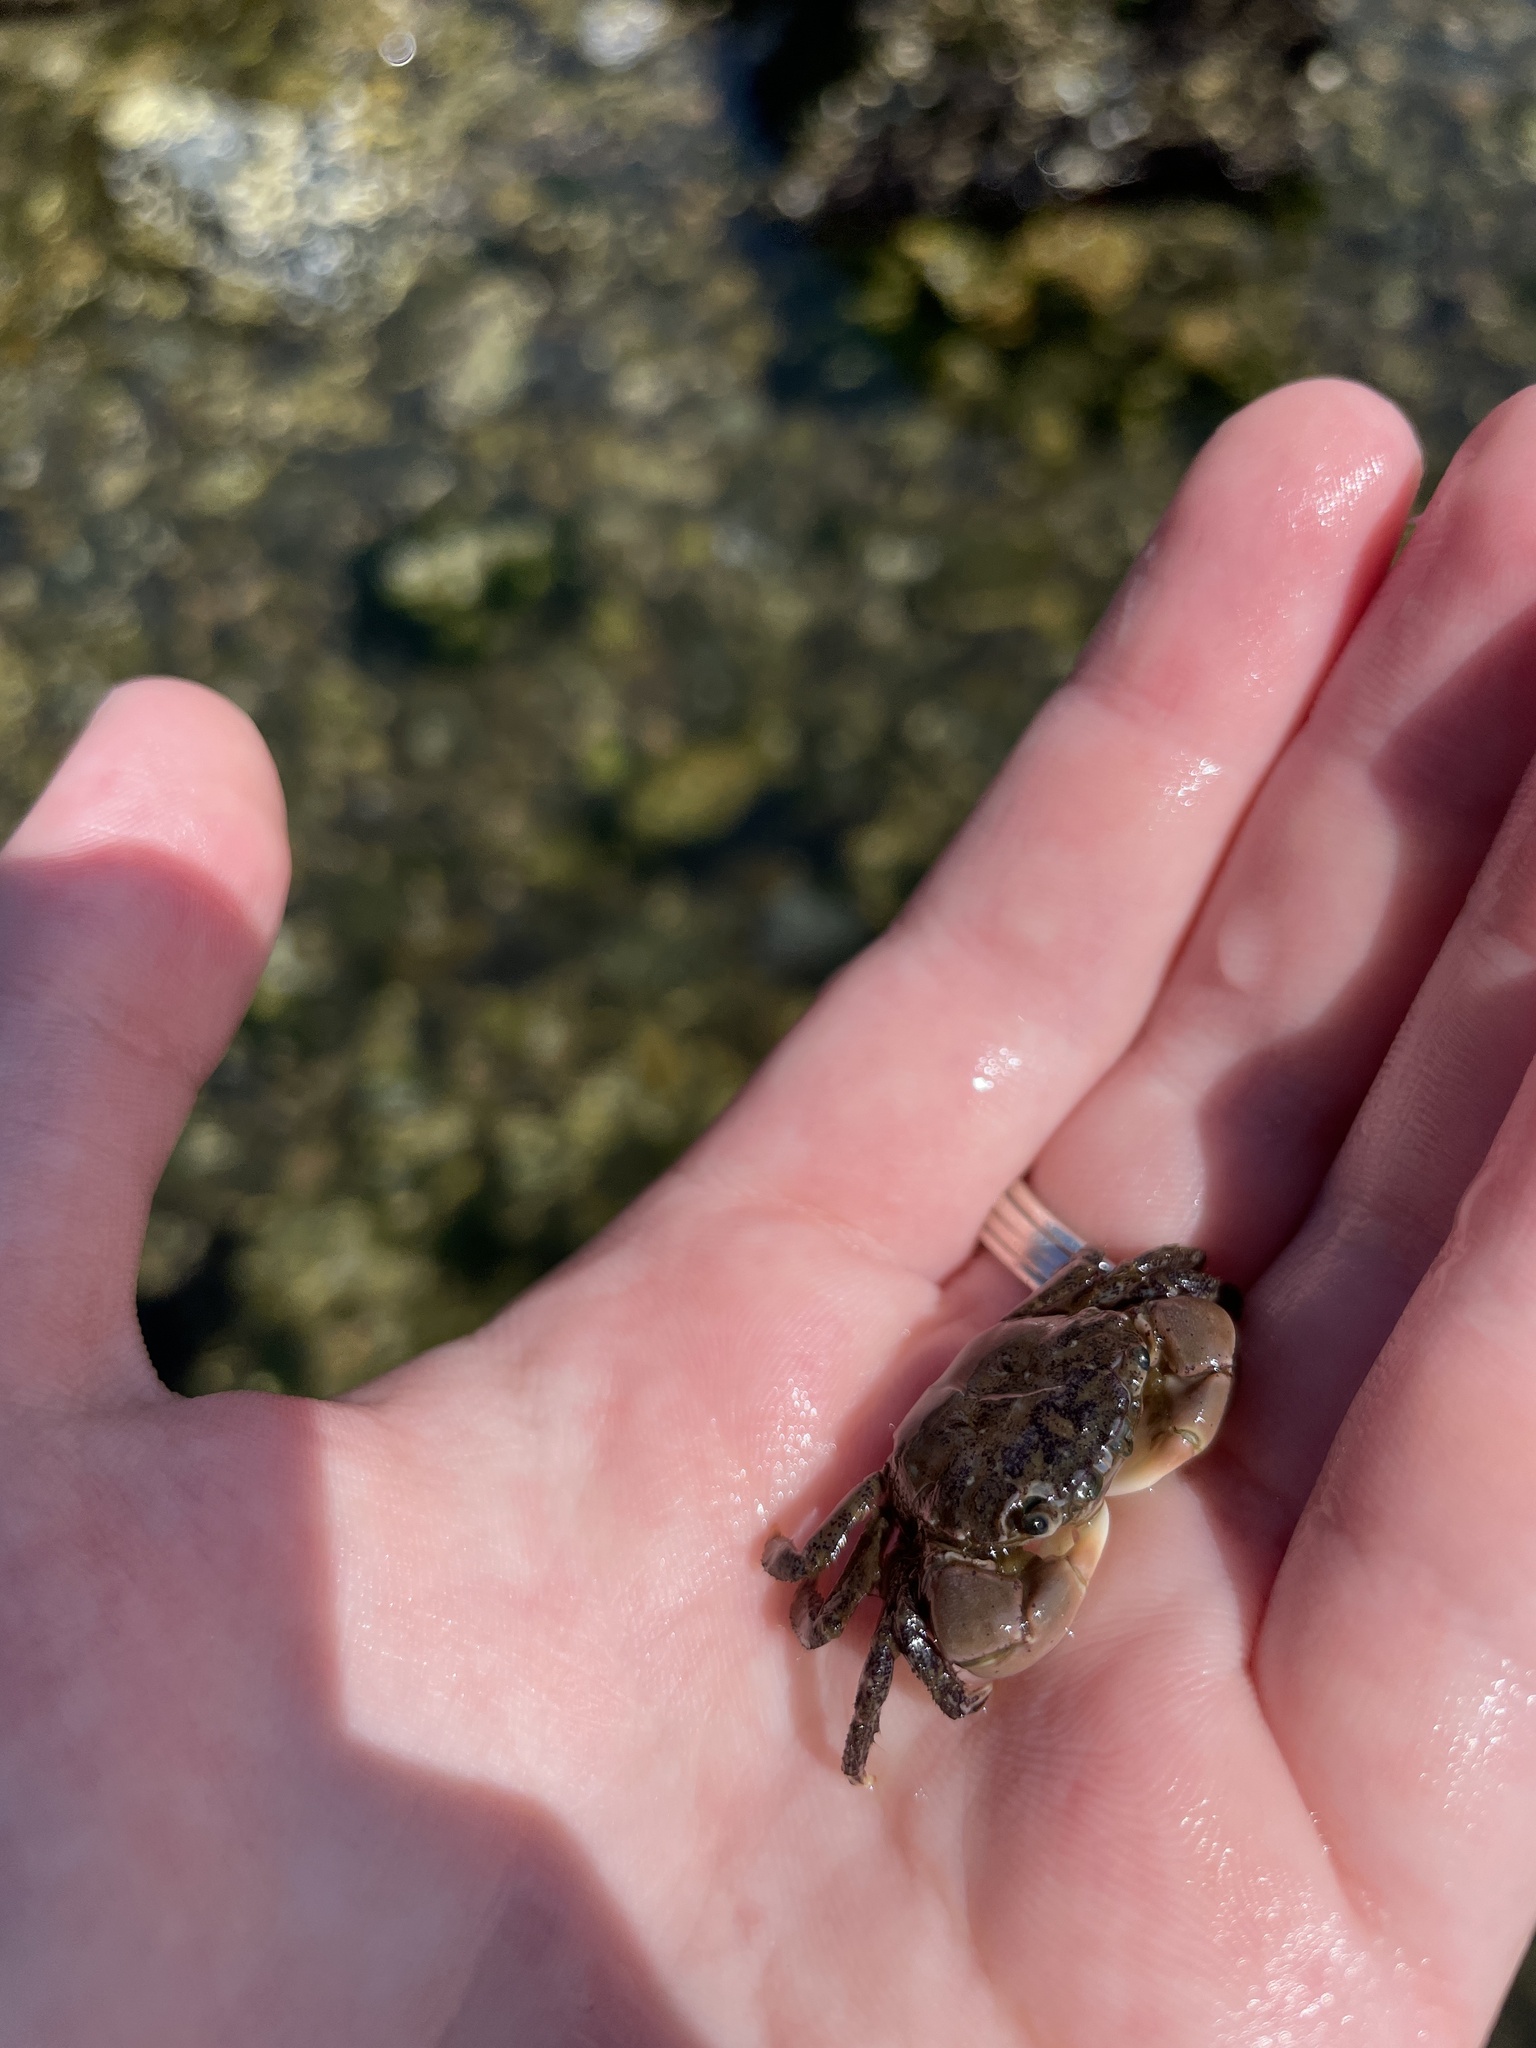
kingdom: Animalia
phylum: Arthropoda
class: Malacostraca
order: Decapoda
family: Varunidae
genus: Hemigrapsus
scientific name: Hemigrapsus oregonensis
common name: Yellow shore crab
